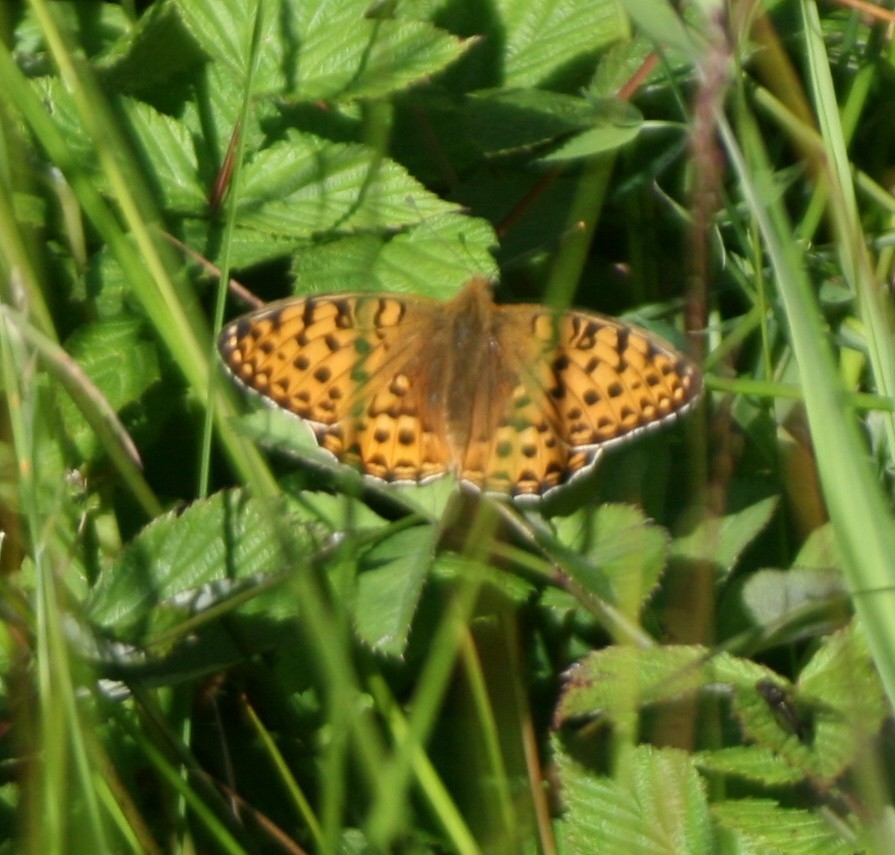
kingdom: Animalia
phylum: Arthropoda
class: Insecta
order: Lepidoptera
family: Nymphalidae
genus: Speyeria
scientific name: Speyeria aglaja
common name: Dark green fritillary
